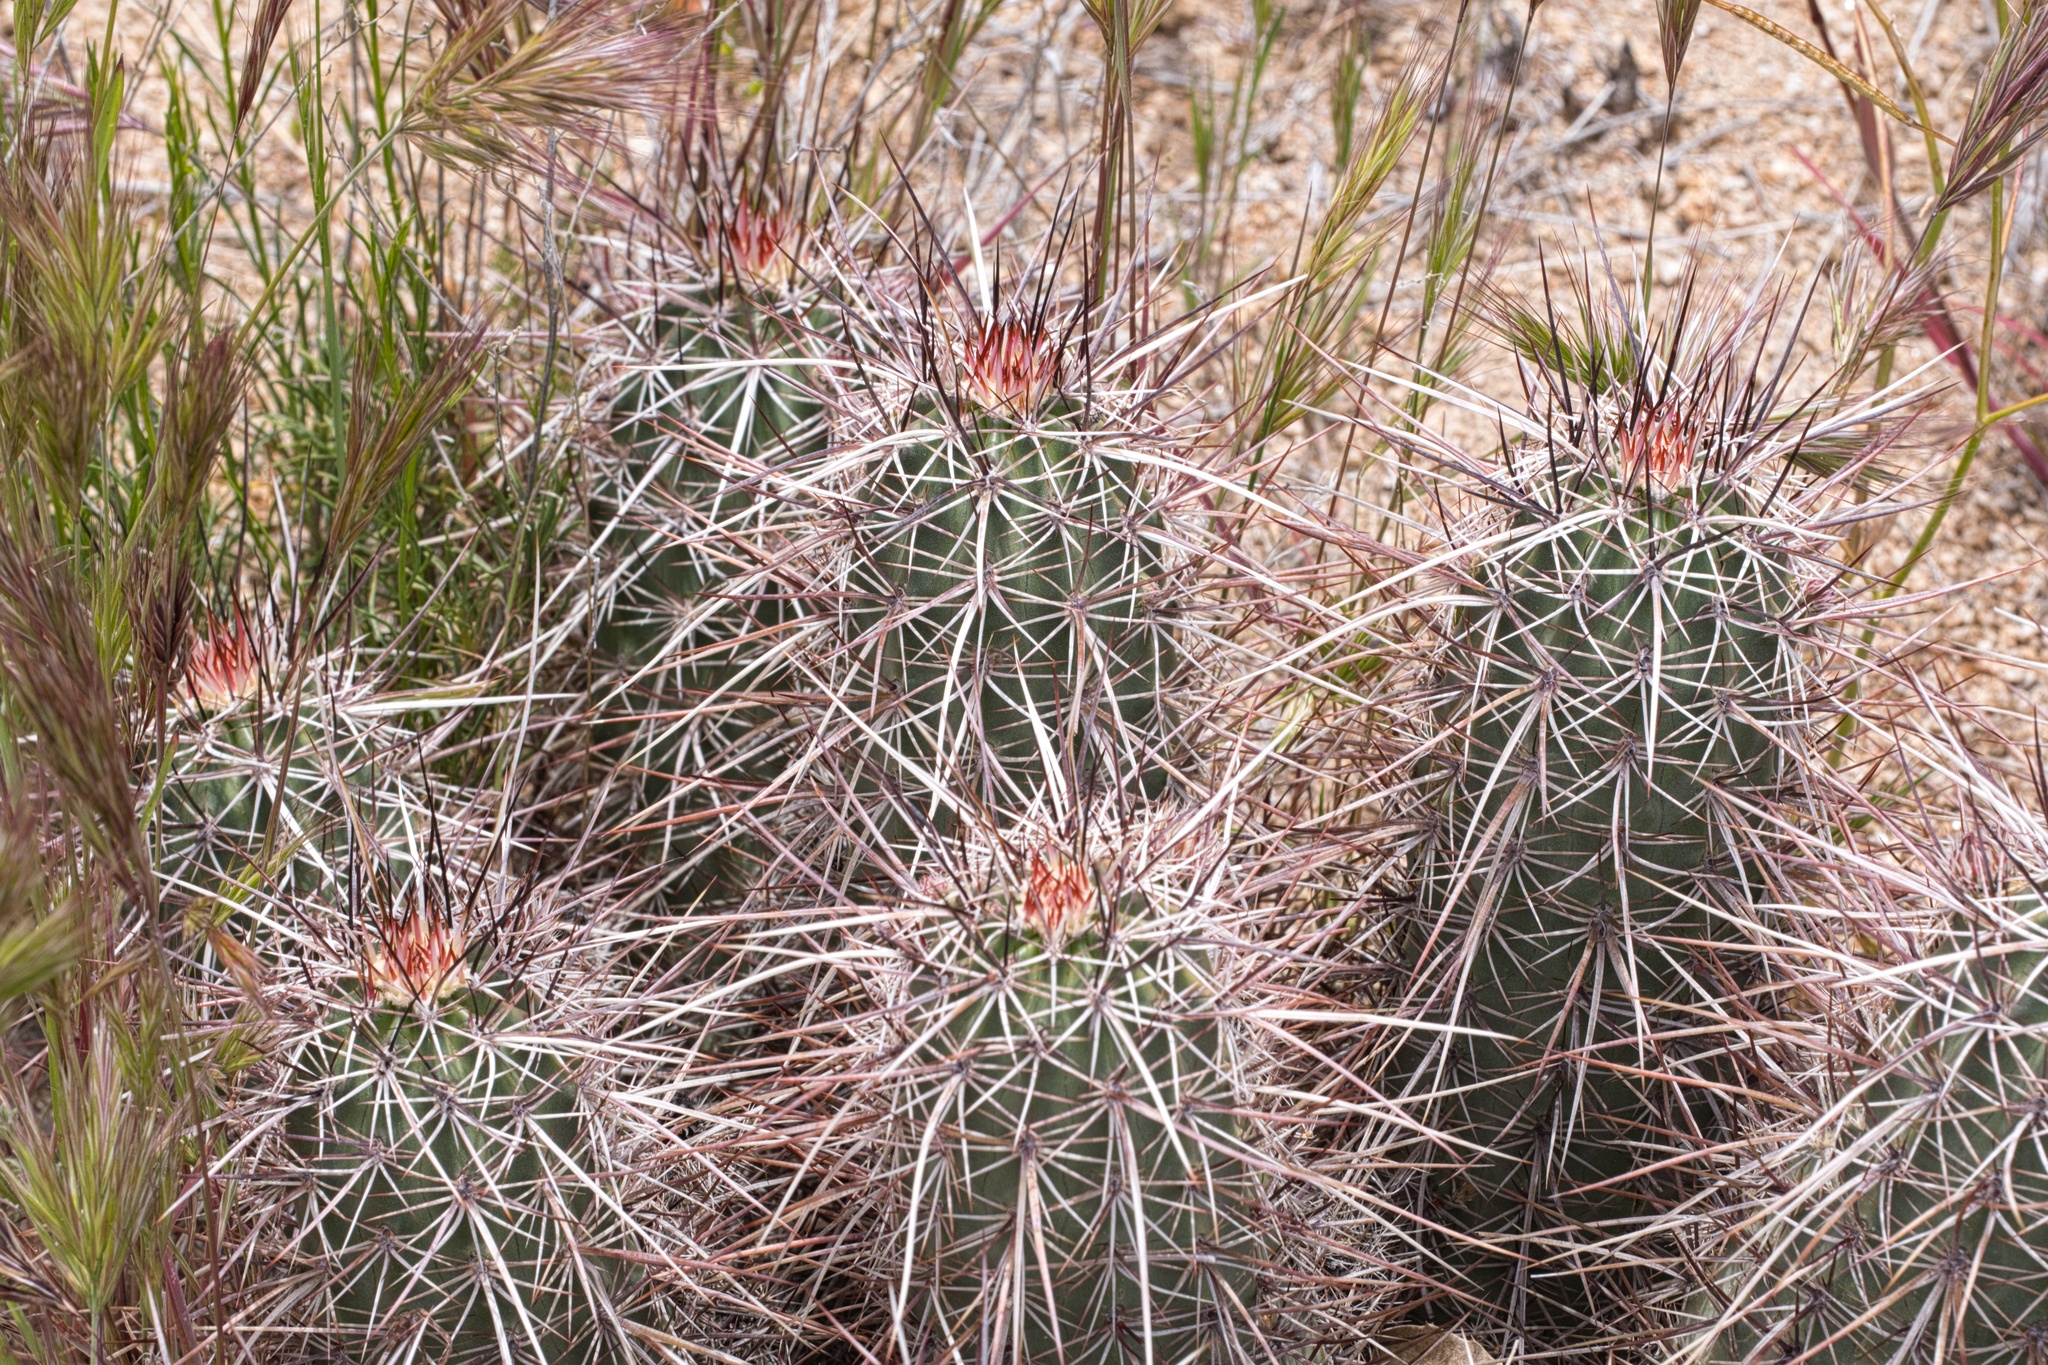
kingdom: Plantae
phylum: Tracheophyta
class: Magnoliopsida
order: Caryophyllales
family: Cactaceae
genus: Echinocereus
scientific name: Echinocereus engelmannii
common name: Engelmann's hedgehog cactus
